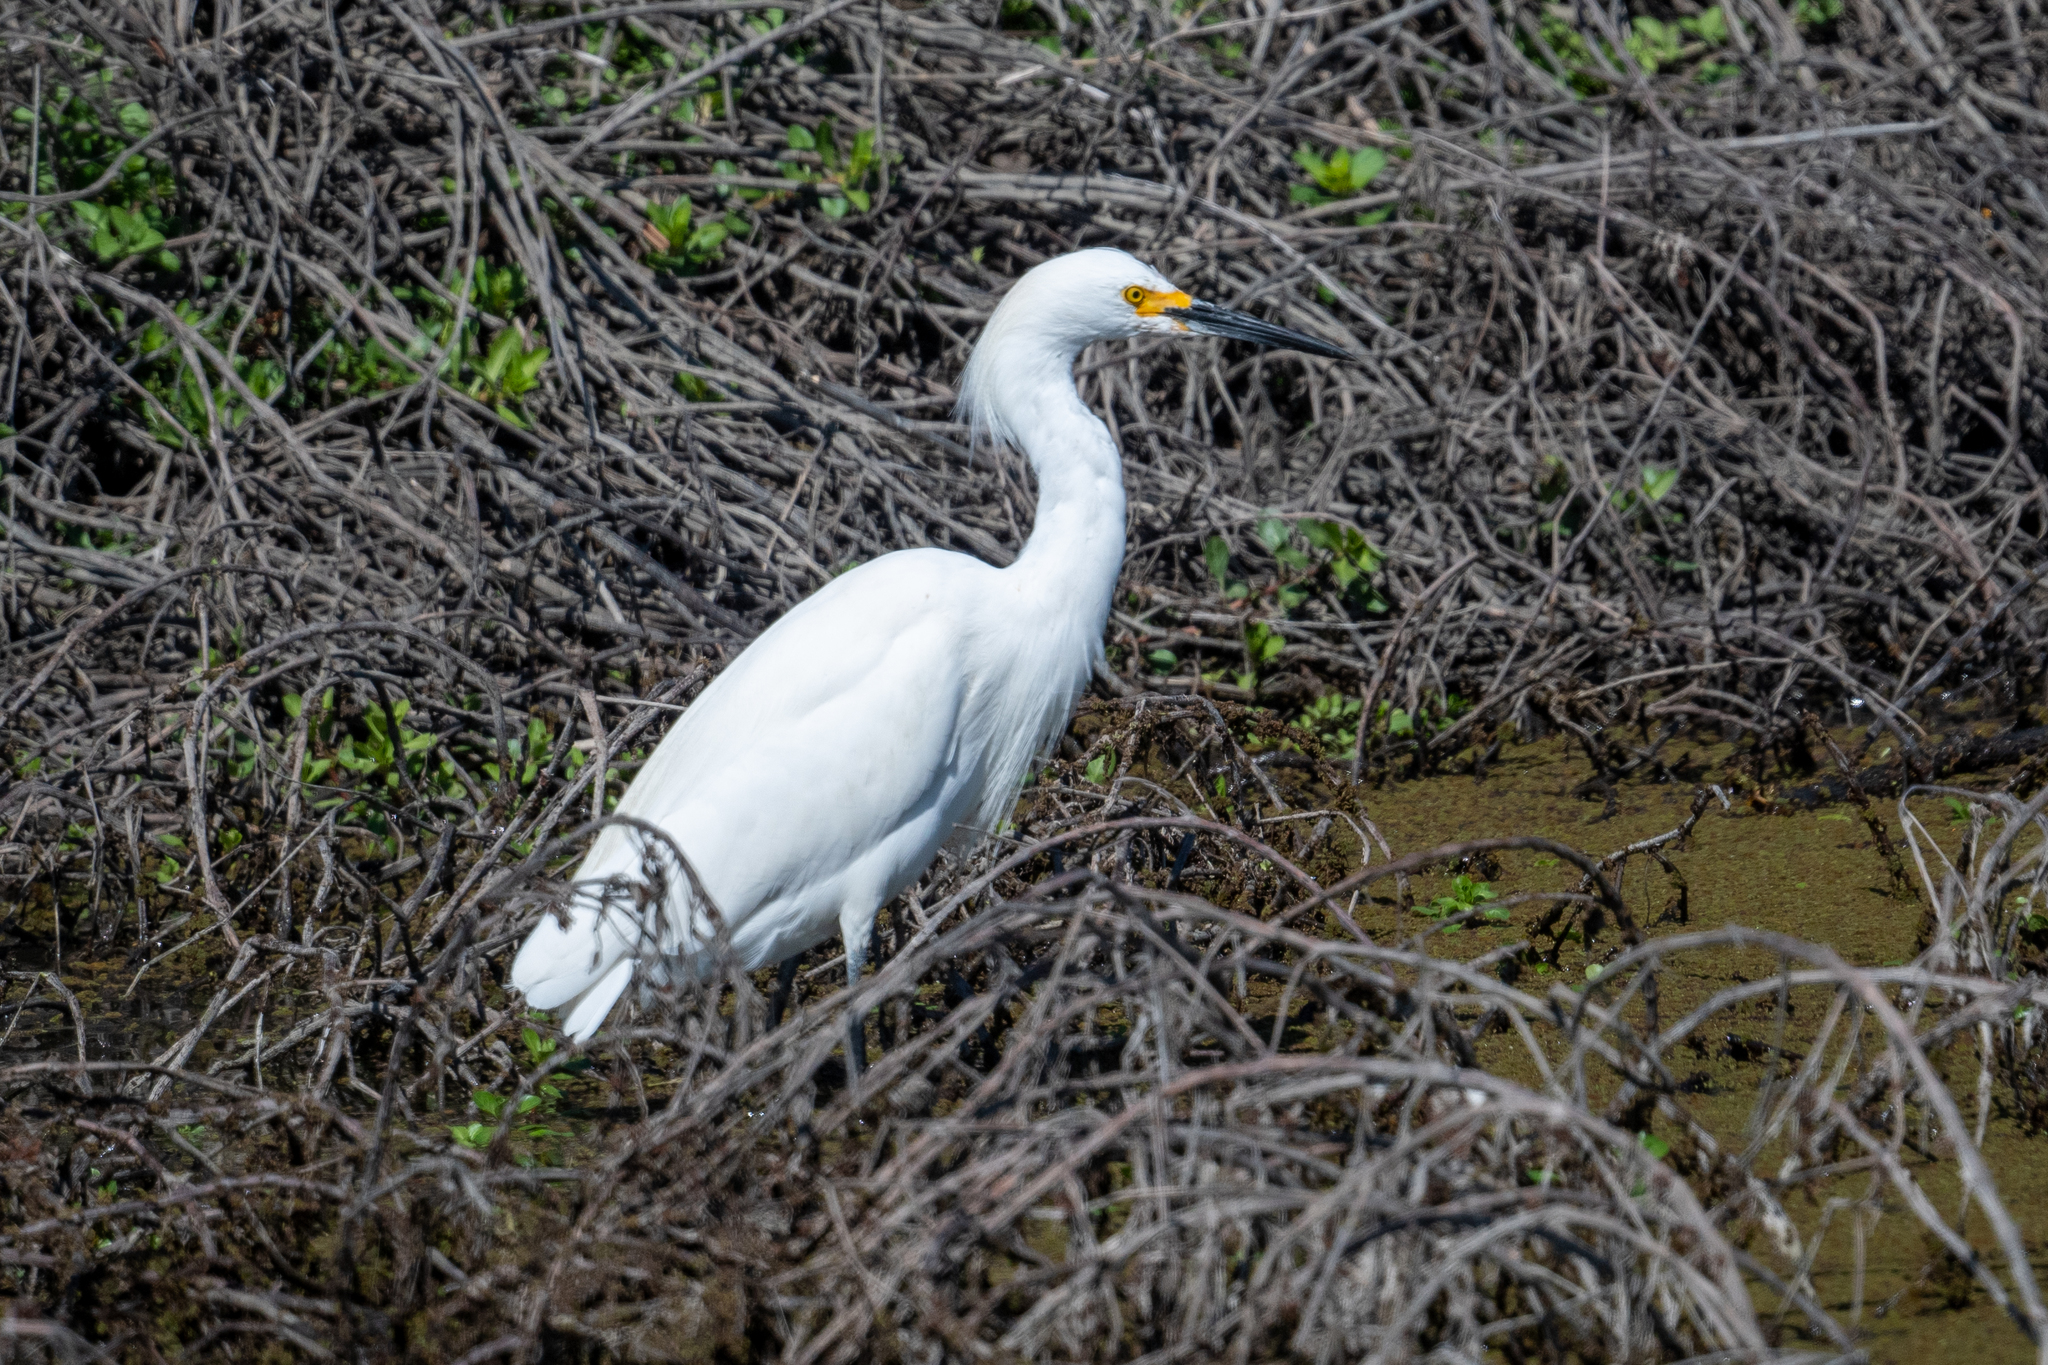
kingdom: Animalia
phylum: Chordata
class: Aves
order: Pelecaniformes
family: Ardeidae
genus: Egretta
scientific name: Egretta thula
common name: Snowy egret
